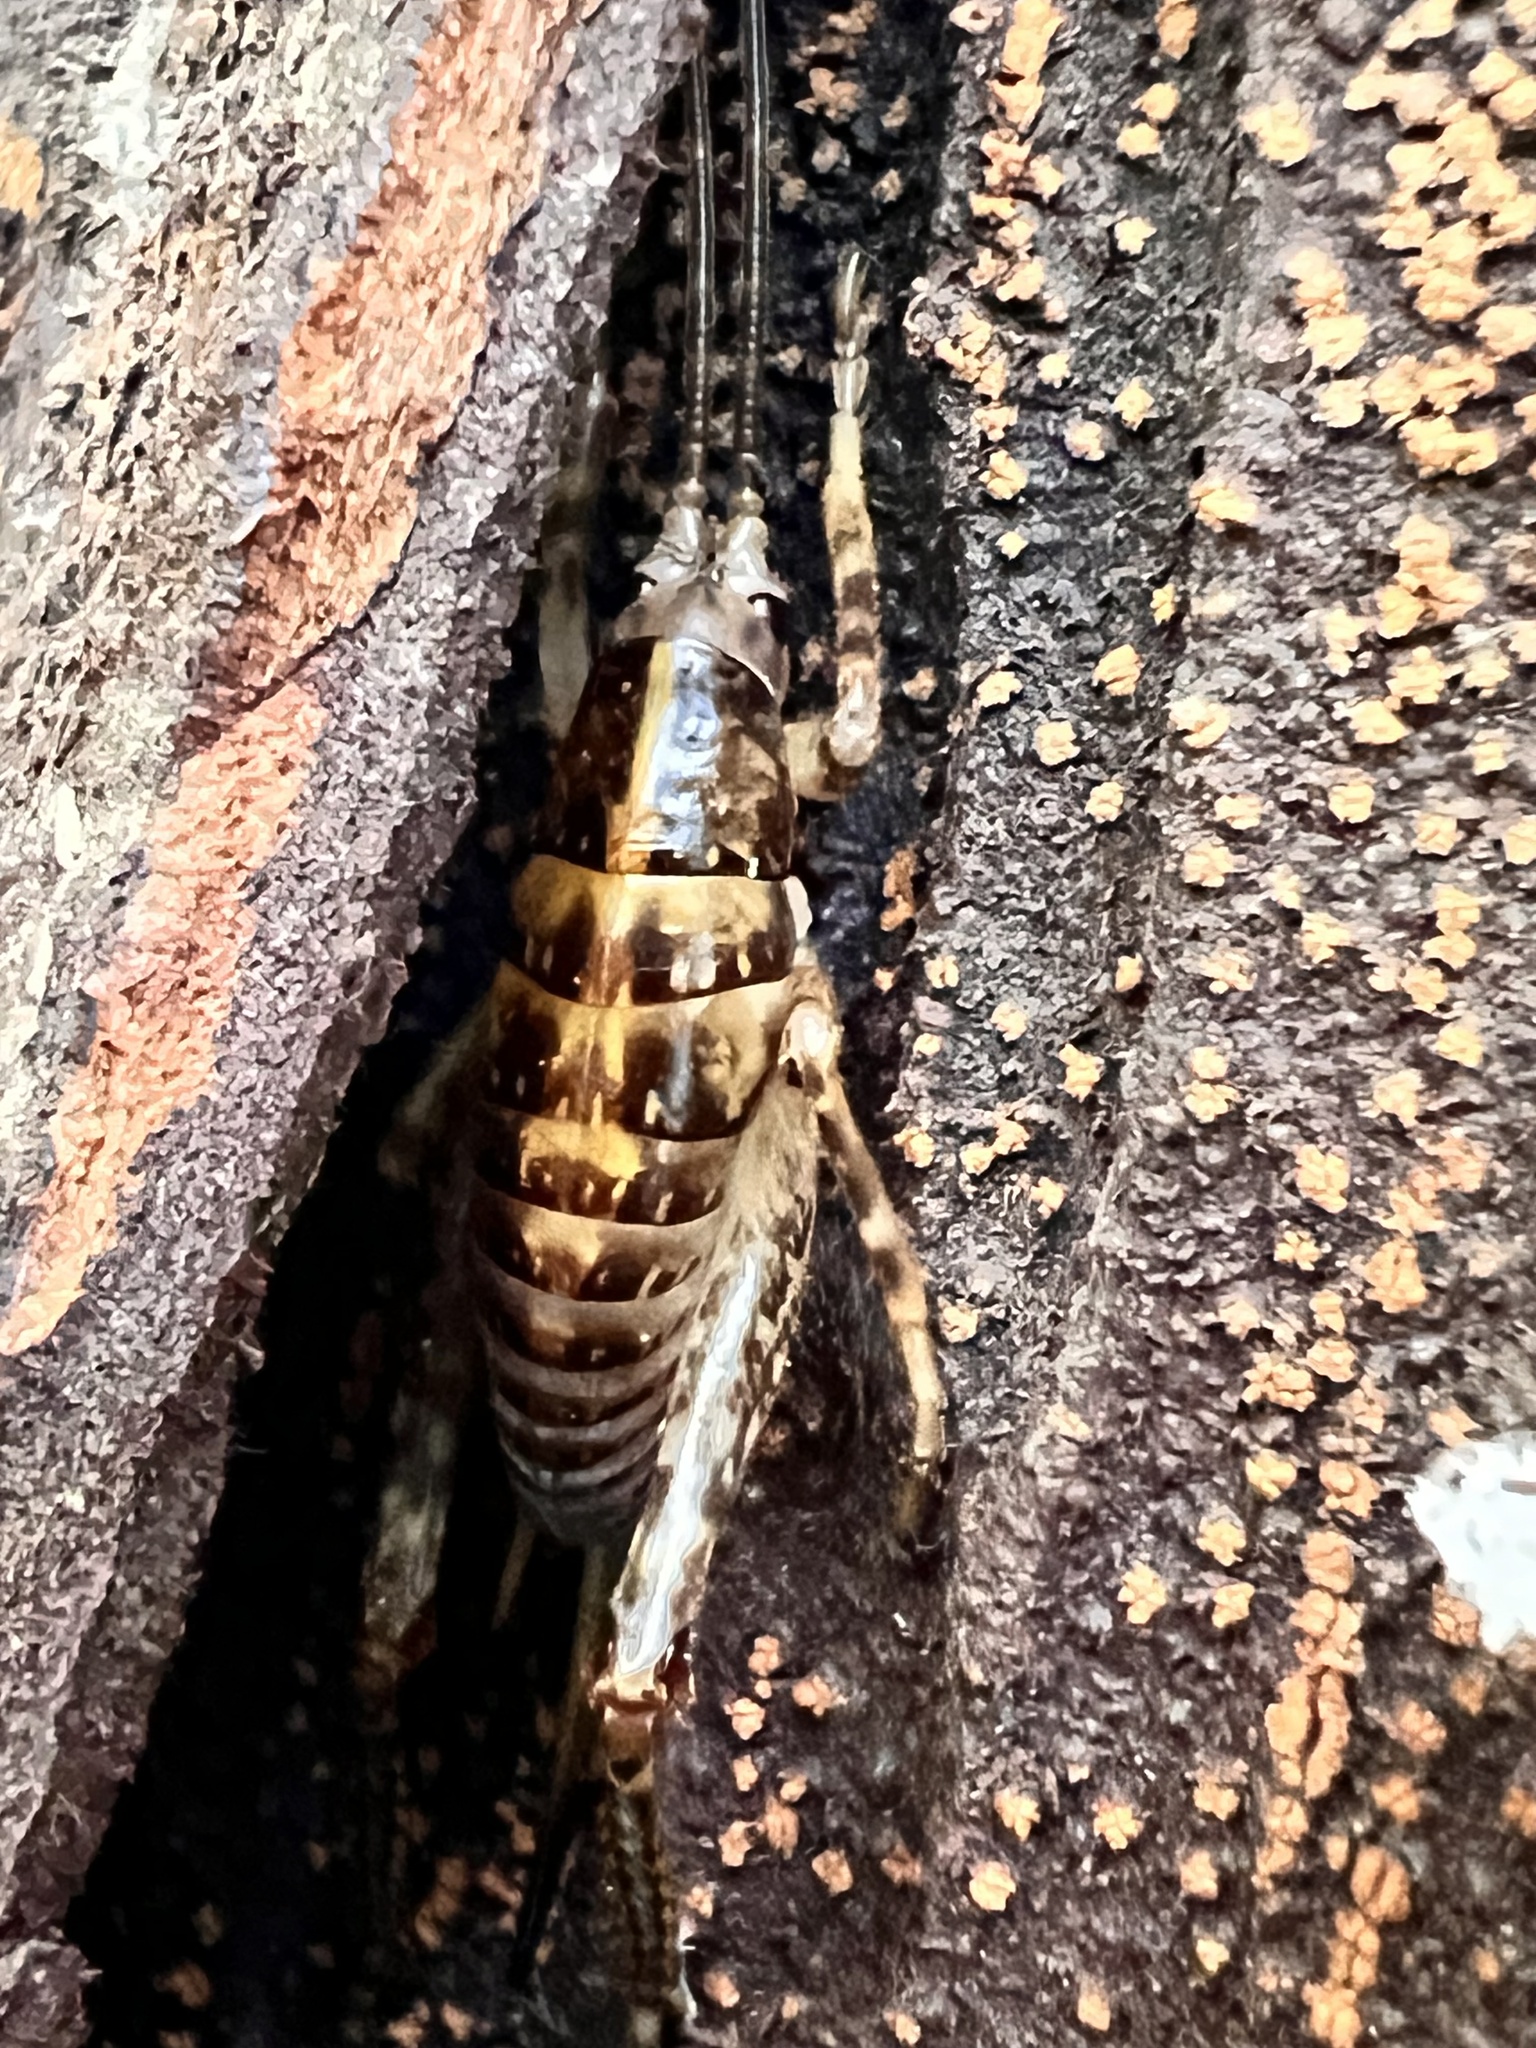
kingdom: Animalia
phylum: Arthropoda
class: Insecta
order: Orthoptera
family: Rhaphidophoridae
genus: Talitropsis
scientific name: Talitropsis sedilloti
